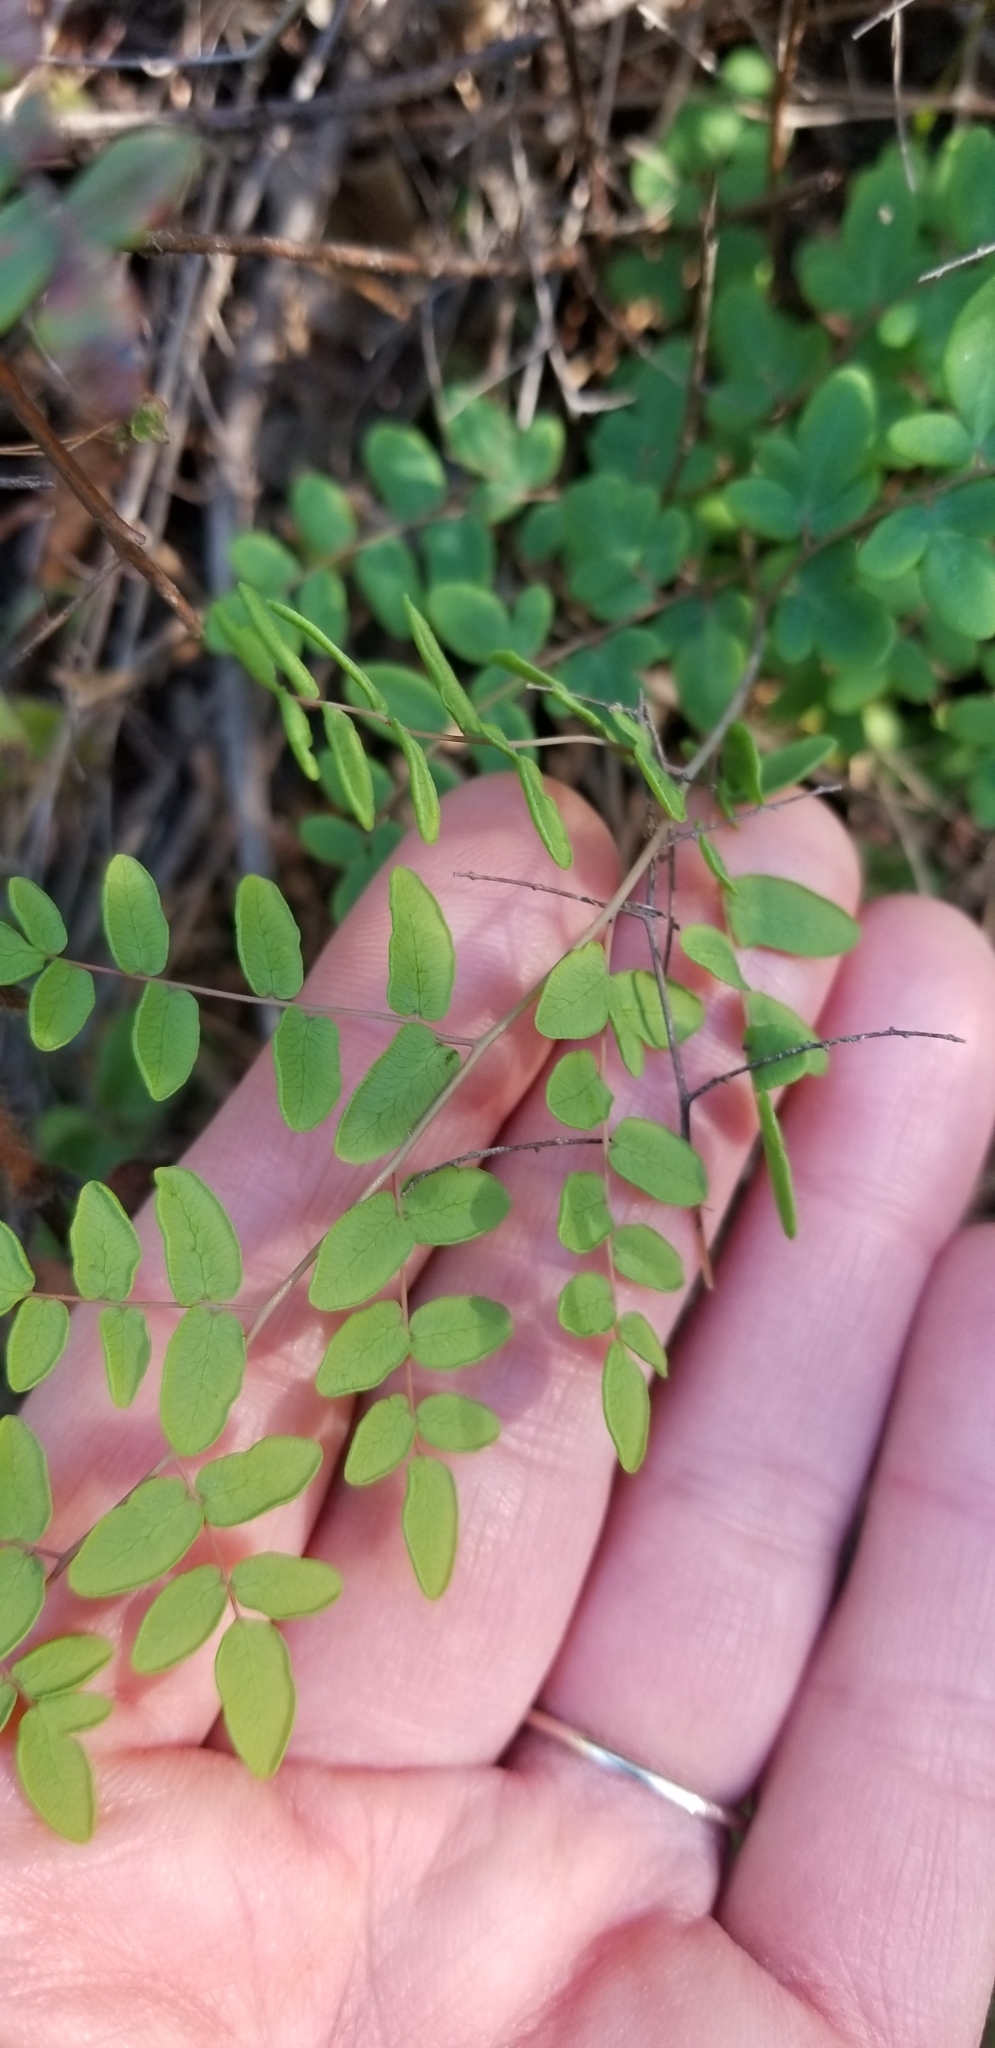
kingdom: Plantae
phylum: Tracheophyta
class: Polypodiopsida
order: Polypodiales
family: Pteridaceae
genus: Pellaea
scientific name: Pellaea andromedifolia
